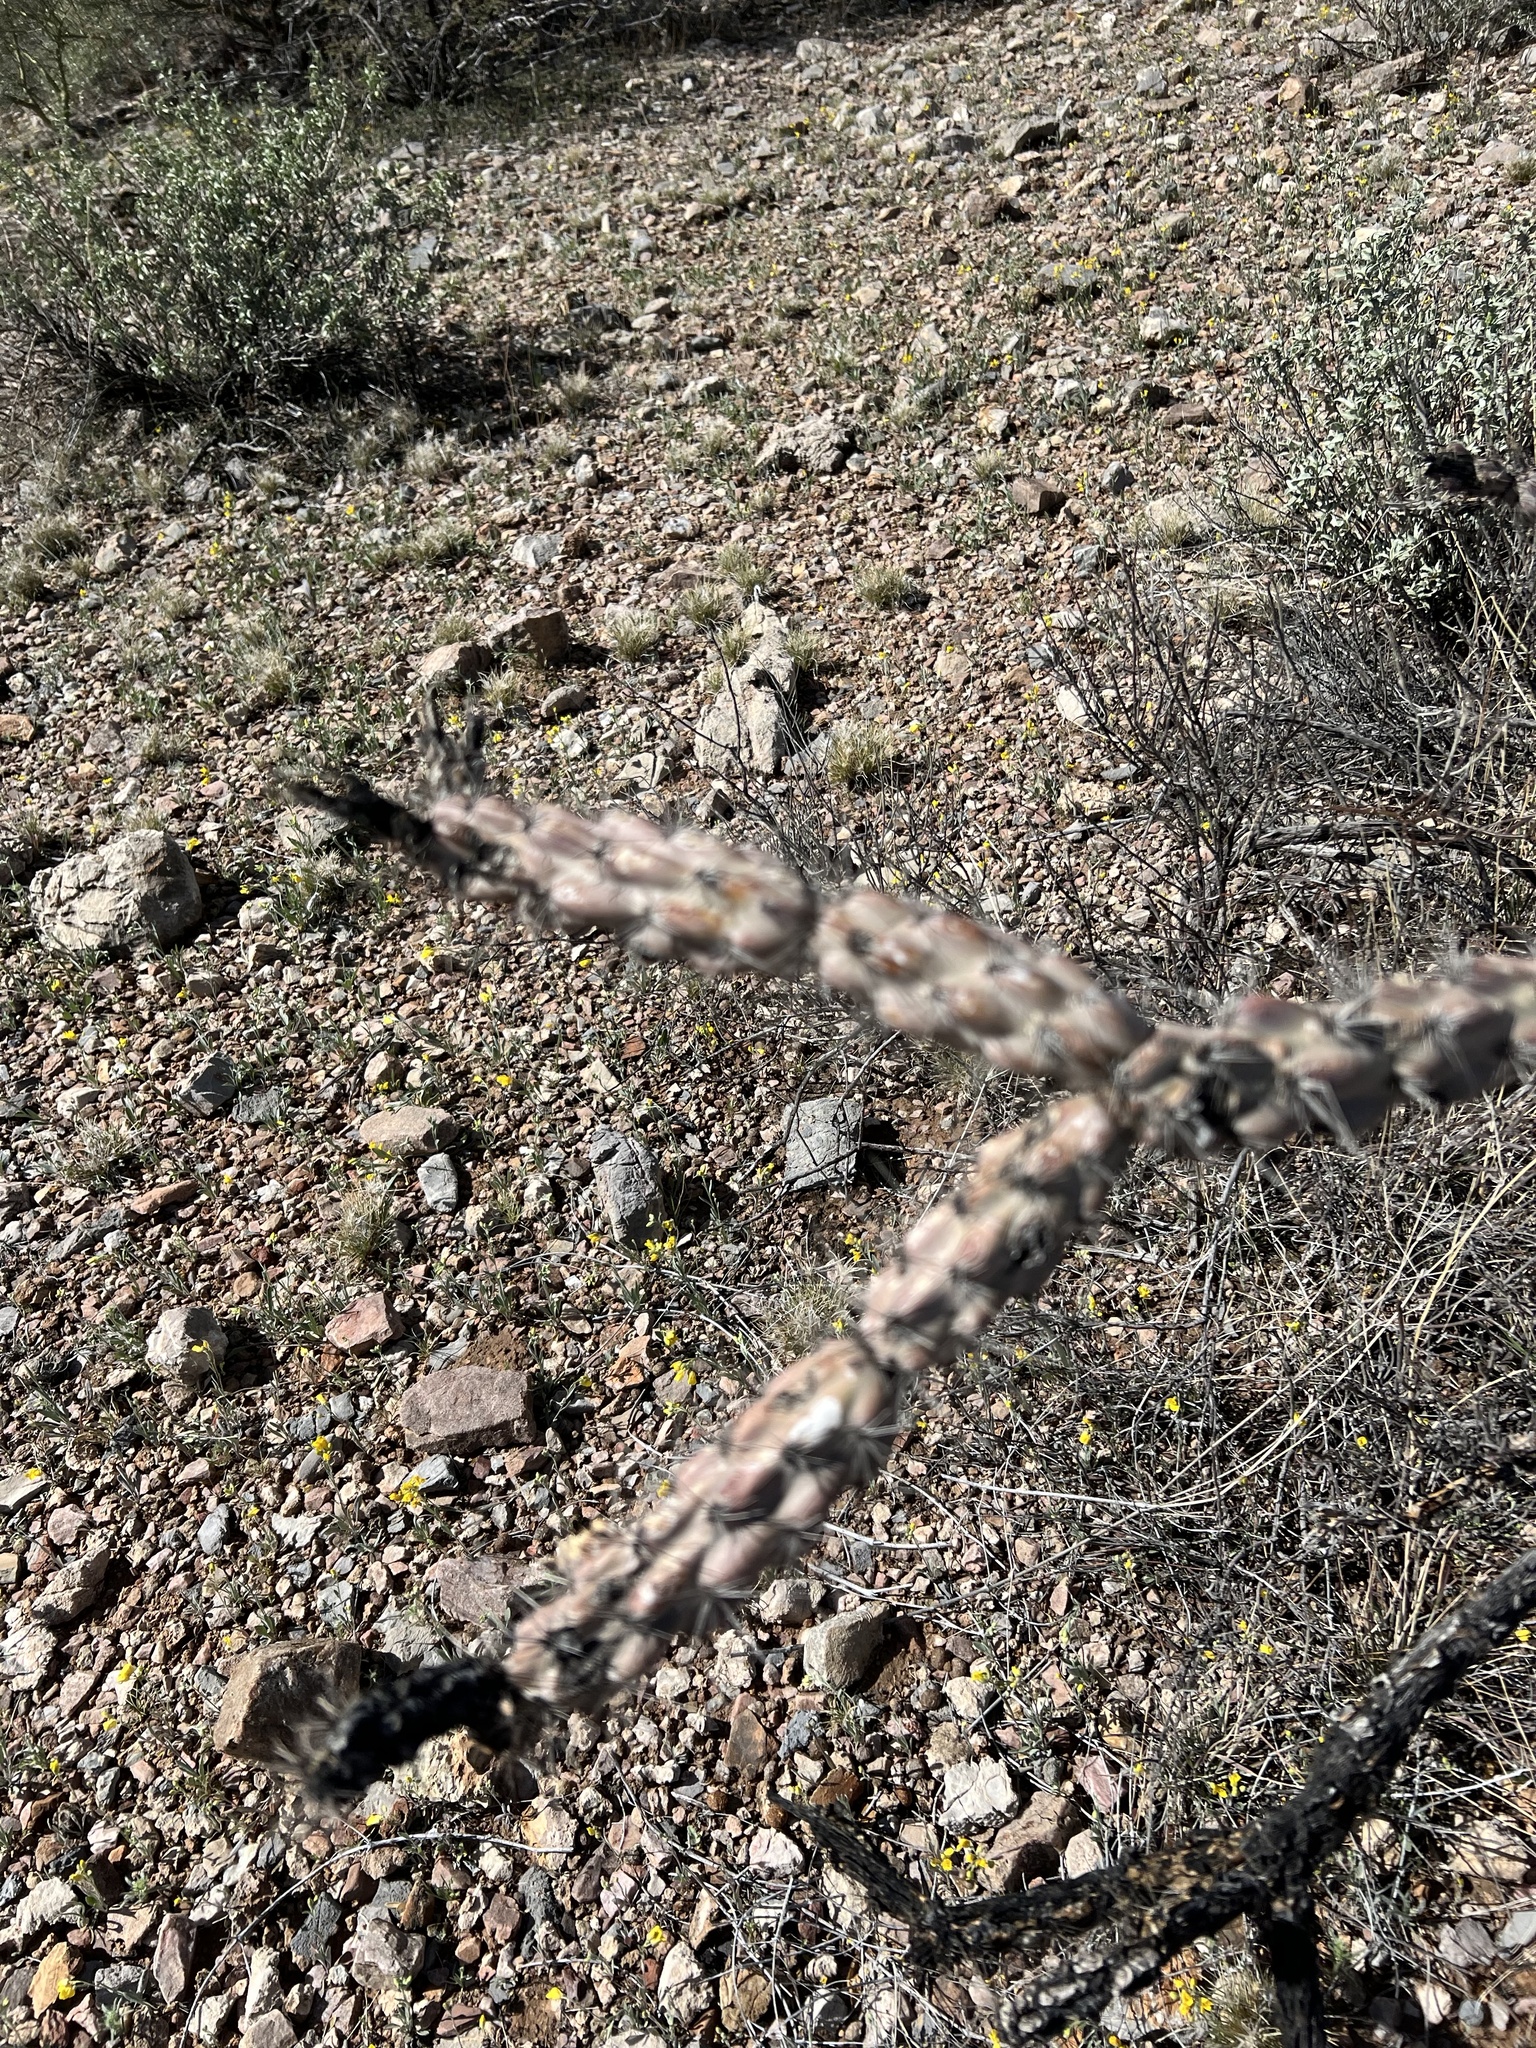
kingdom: Plantae
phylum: Tracheophyta
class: Magnoliopsida
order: Caryophyllales
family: Cactaceae
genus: Cylindropuntia
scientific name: Cylindropuntia acanthocarpa
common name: Buckhorn cholla
